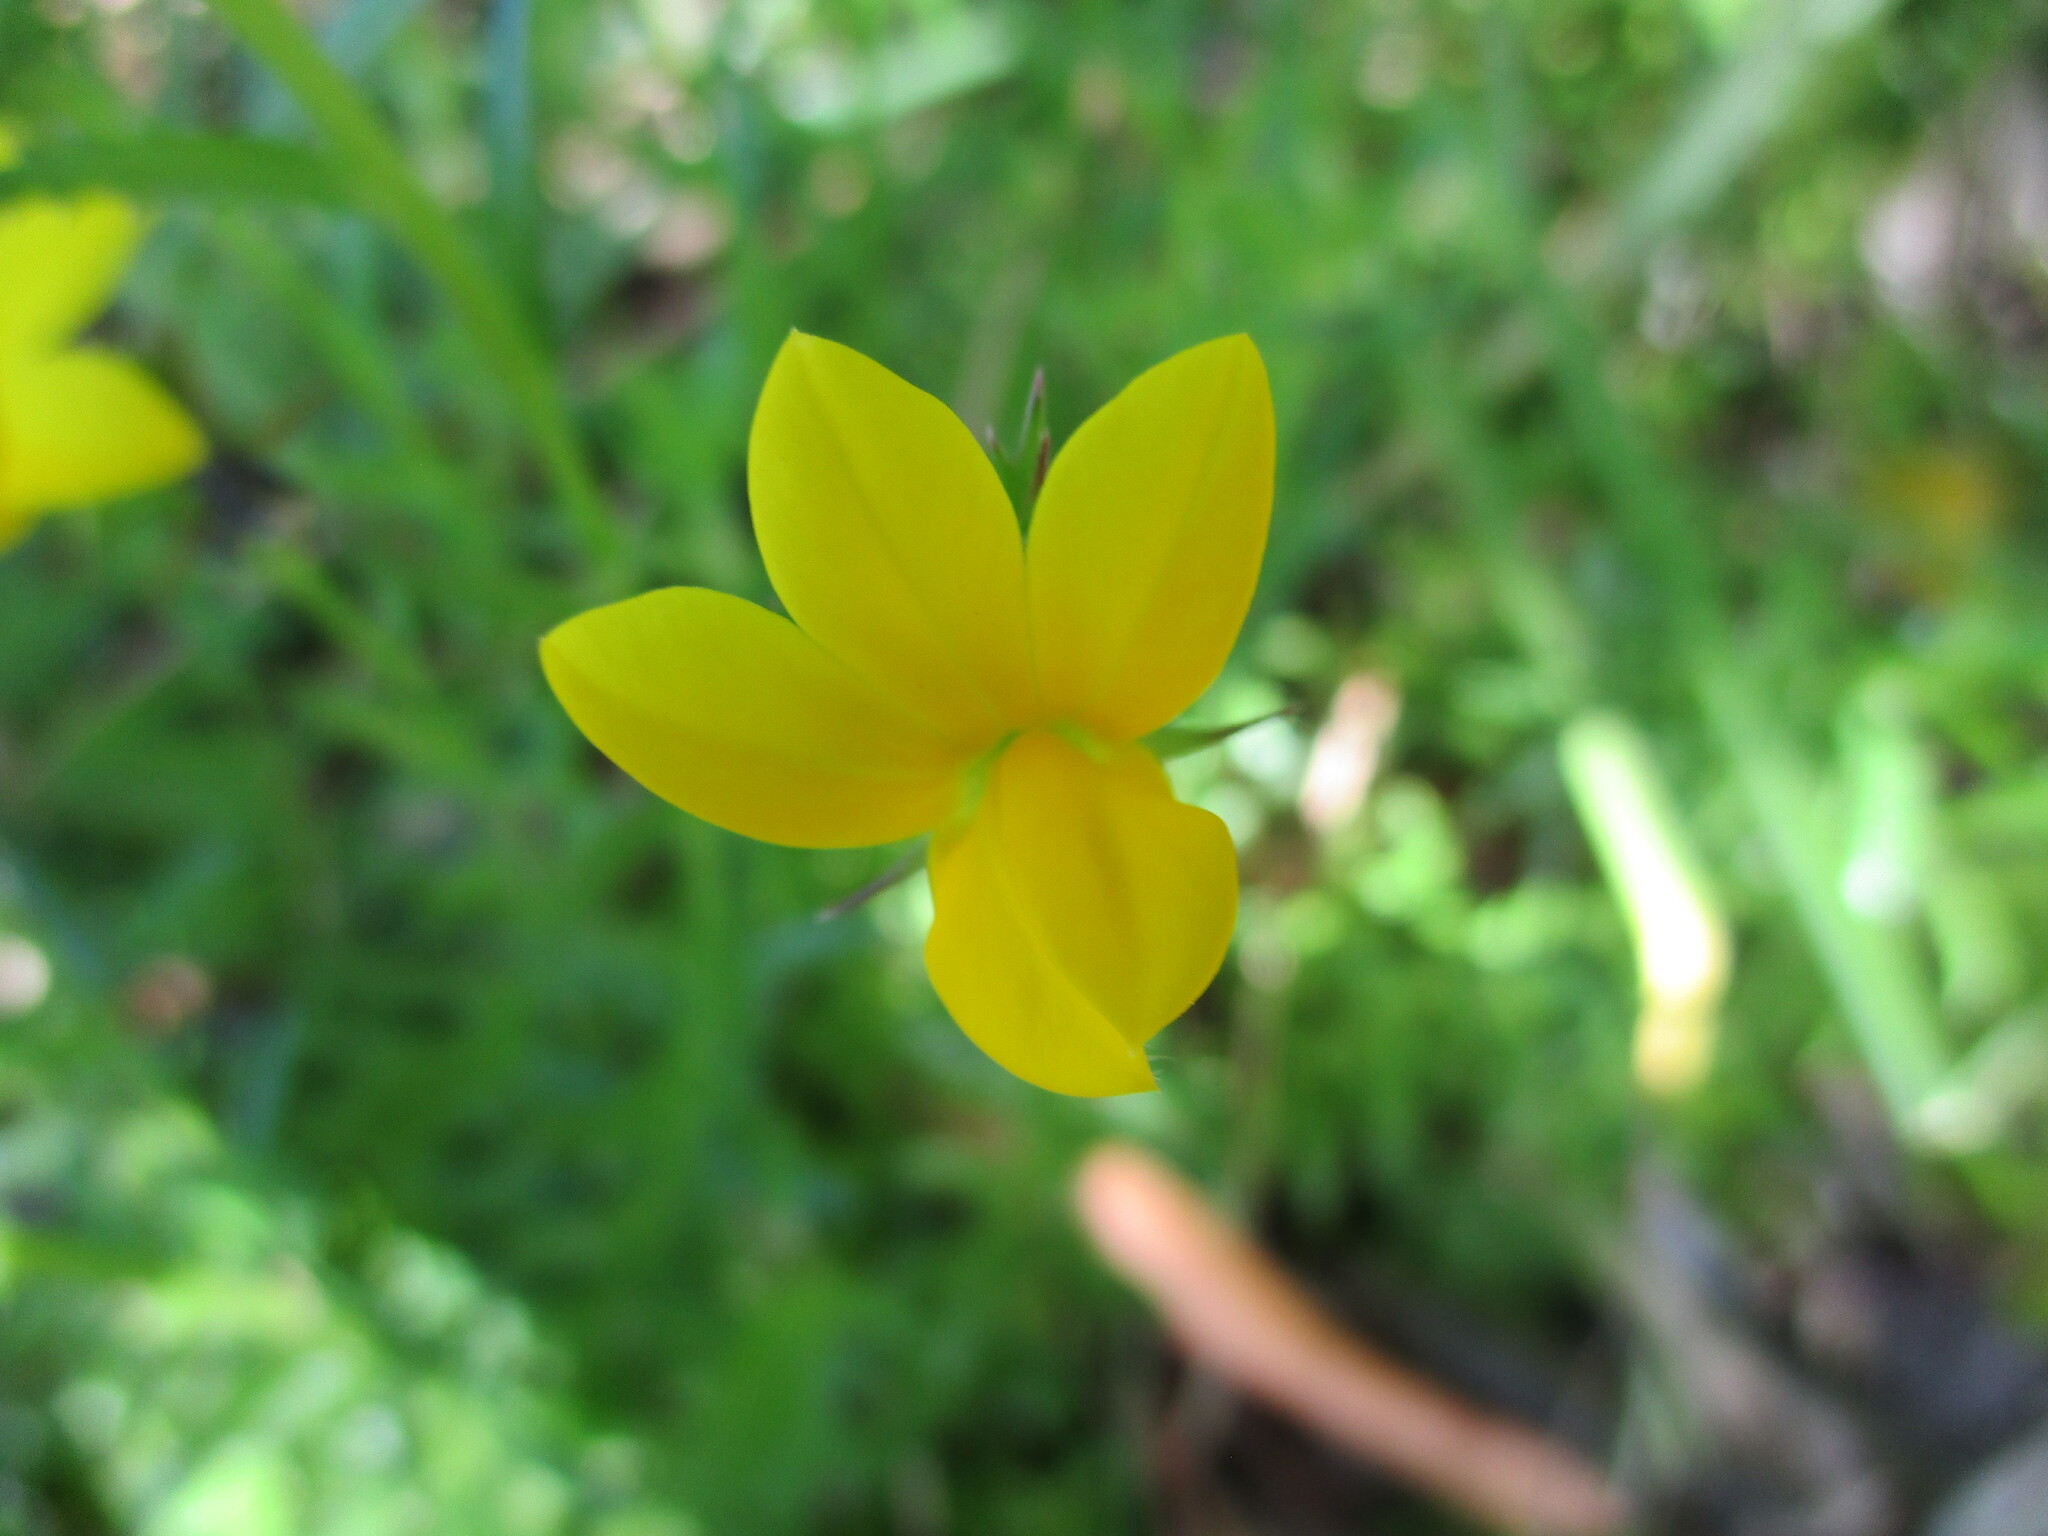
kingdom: Plantae
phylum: Tracheophyta
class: Magnoliopsida
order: Asterales
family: Campanulaceae
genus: Monopsis
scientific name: Monopsis lutea
